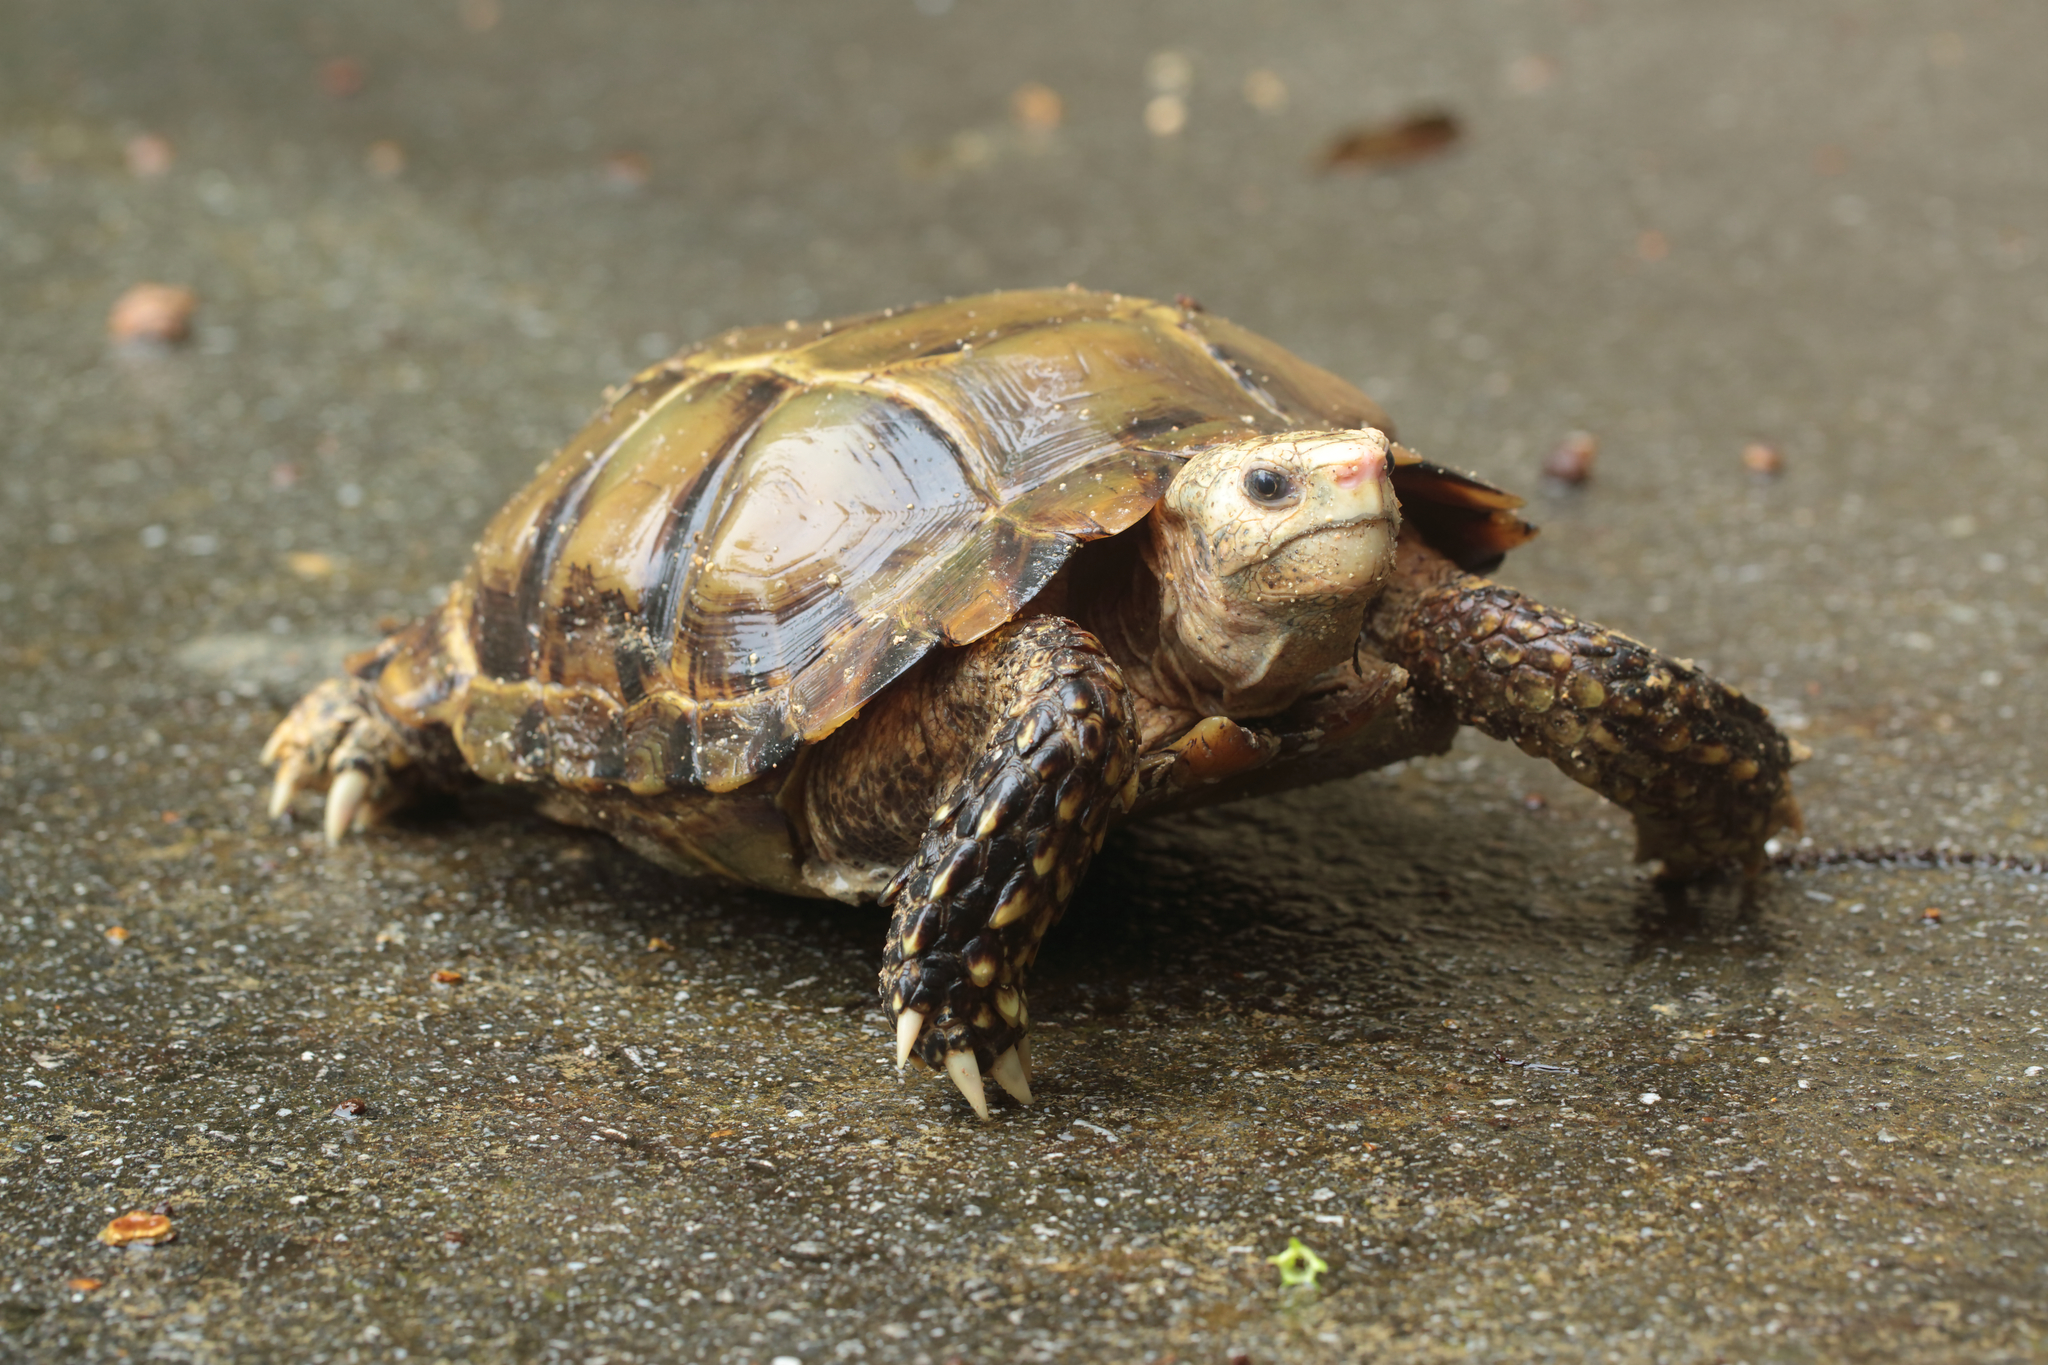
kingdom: Animalia
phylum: Chordata
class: Testudines
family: Testudinidae
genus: Manouria
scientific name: Manouria impressa
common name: Impressed tortoise
